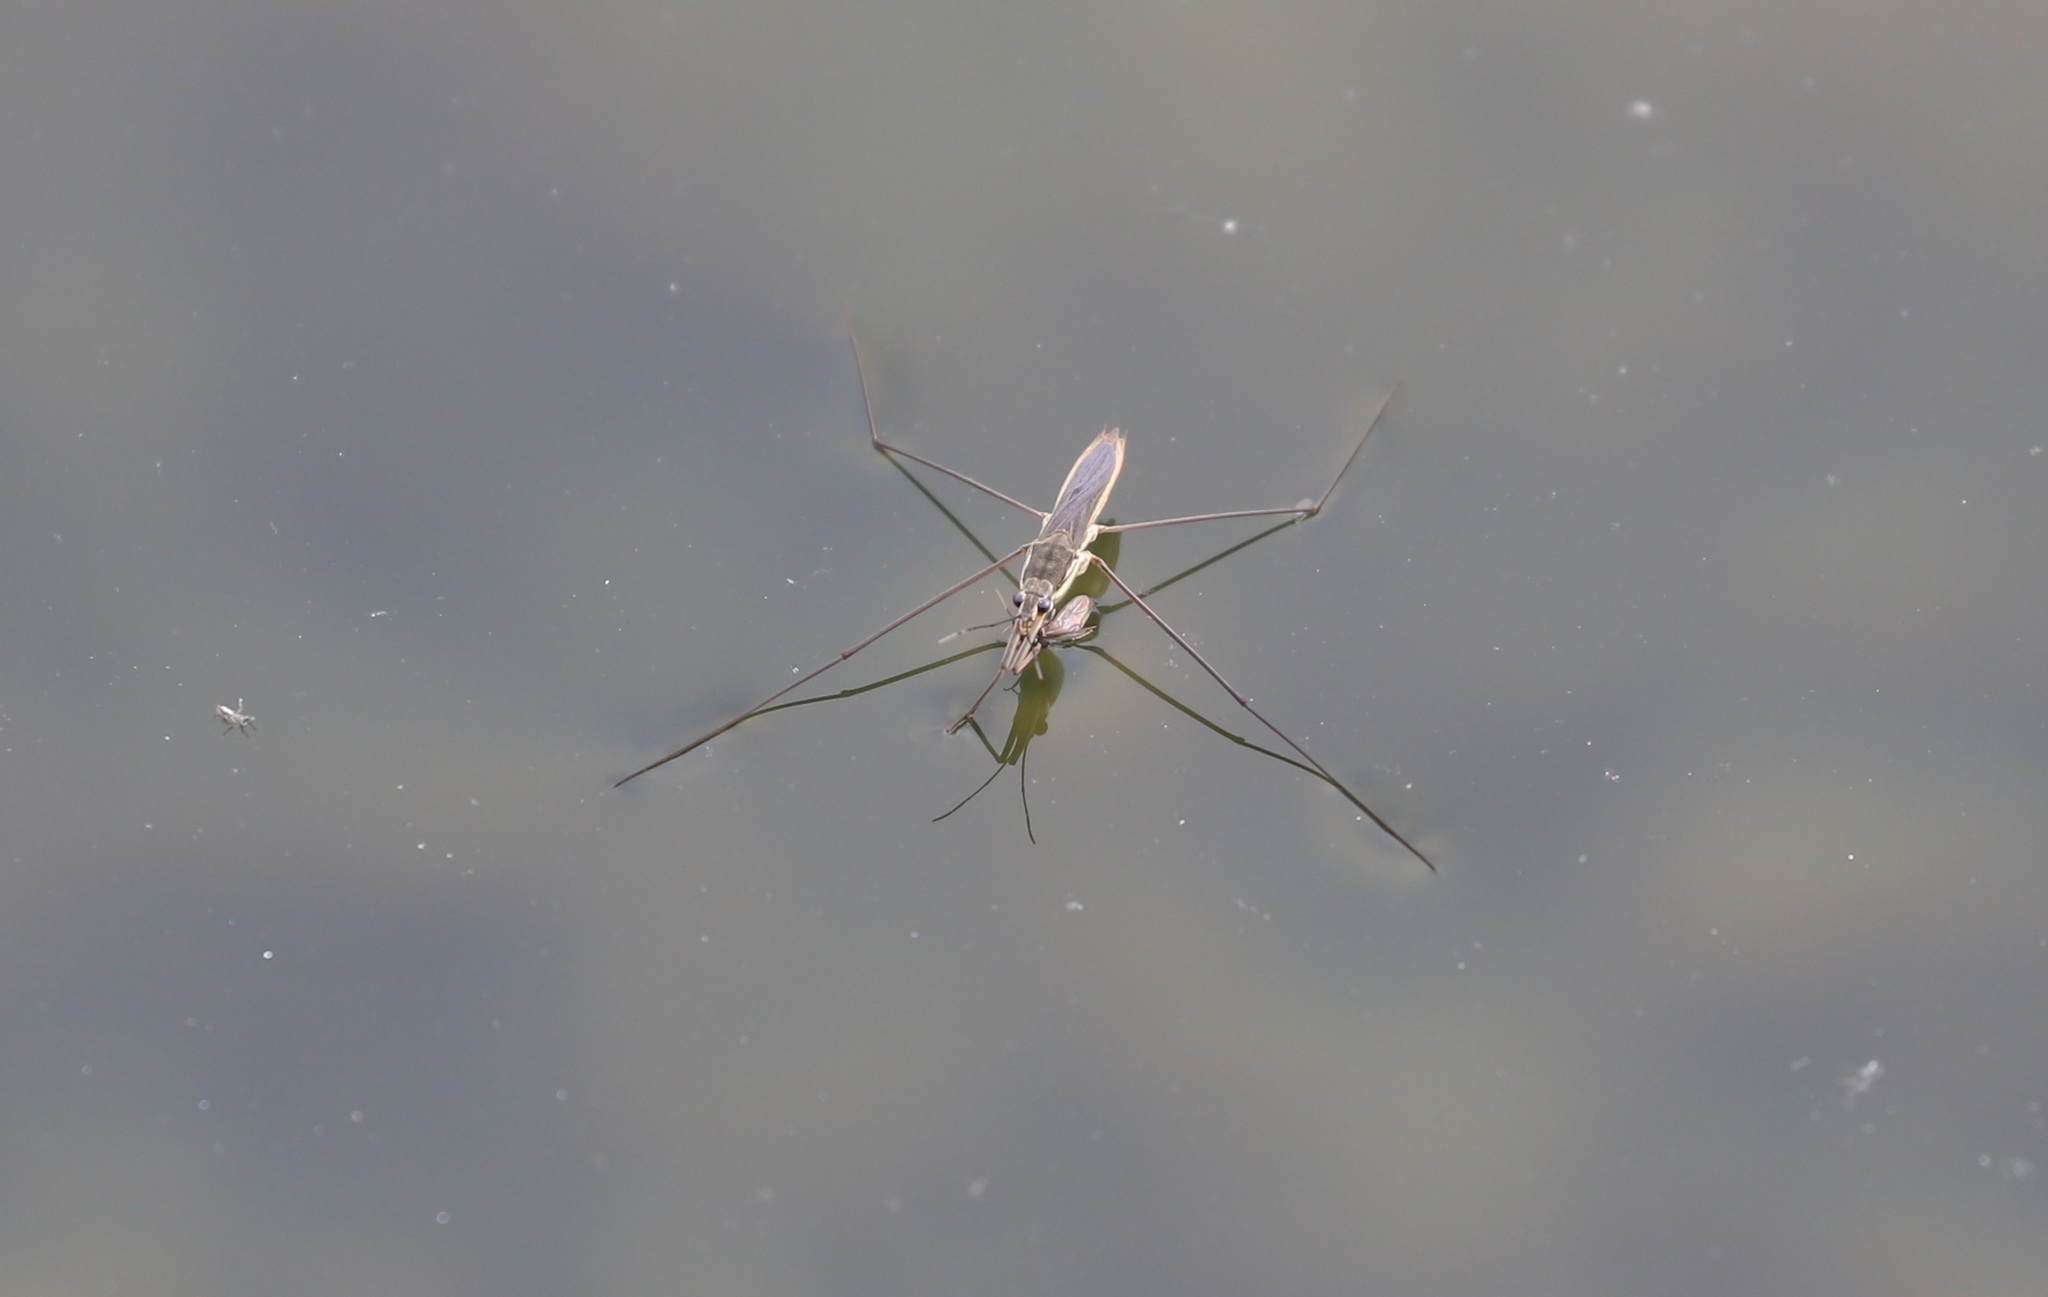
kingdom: Animalia
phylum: Arthropoda
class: Insecta
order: Hemiptera
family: Gerridae
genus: Aquarius
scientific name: Aquarius paludum
